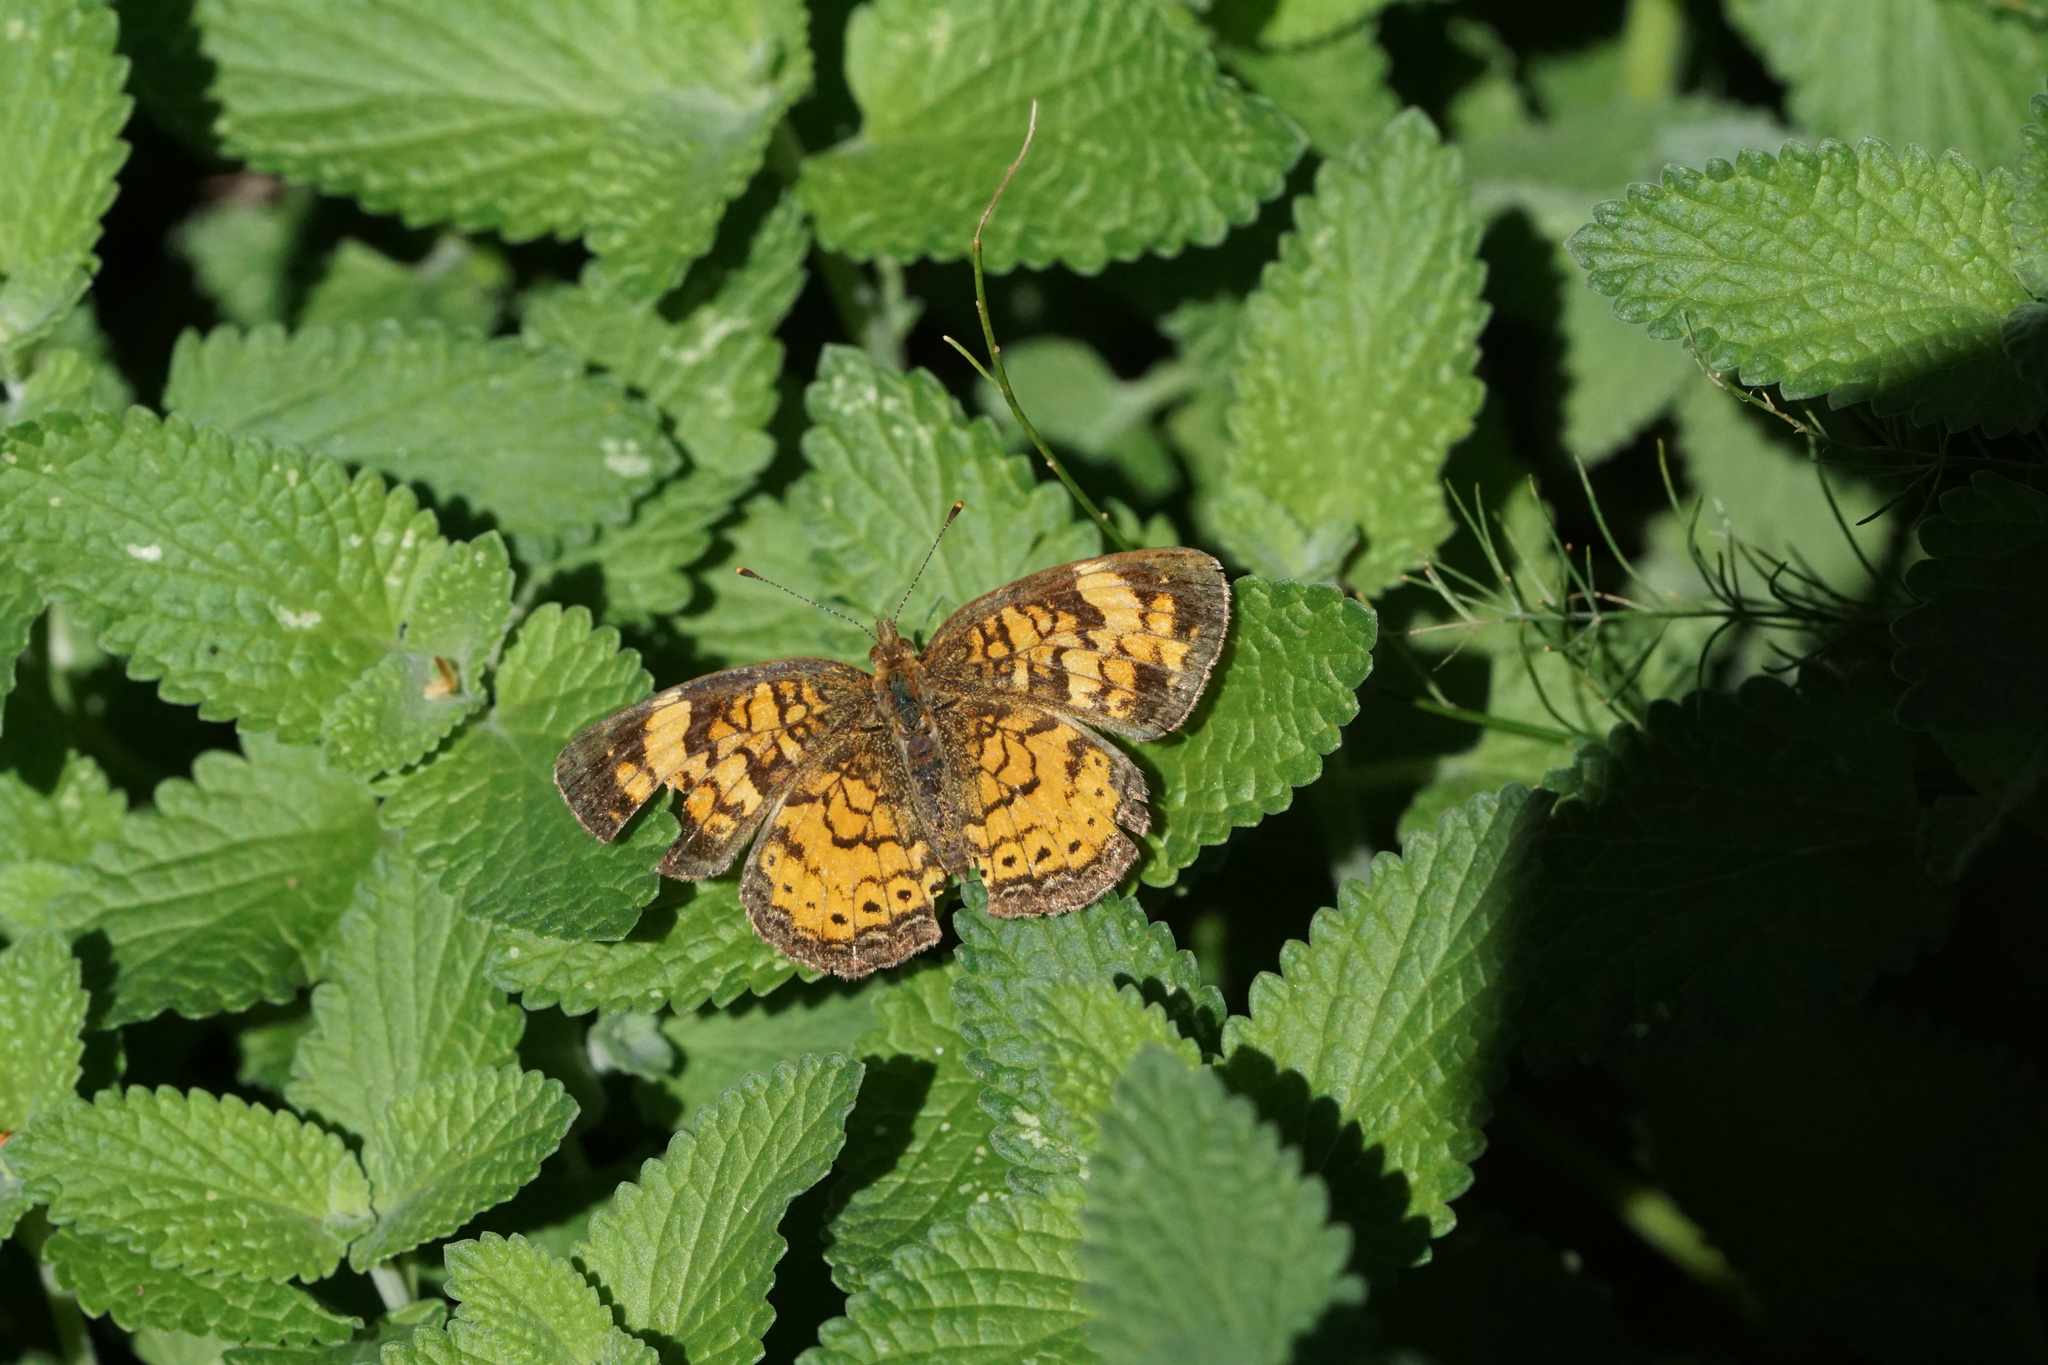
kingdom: Animalia
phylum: Arthropoda
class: Insecta
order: Lepidoptera
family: Nymphalidae
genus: Phyciodes
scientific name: Phyciodes tharos
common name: Pearl crescent
